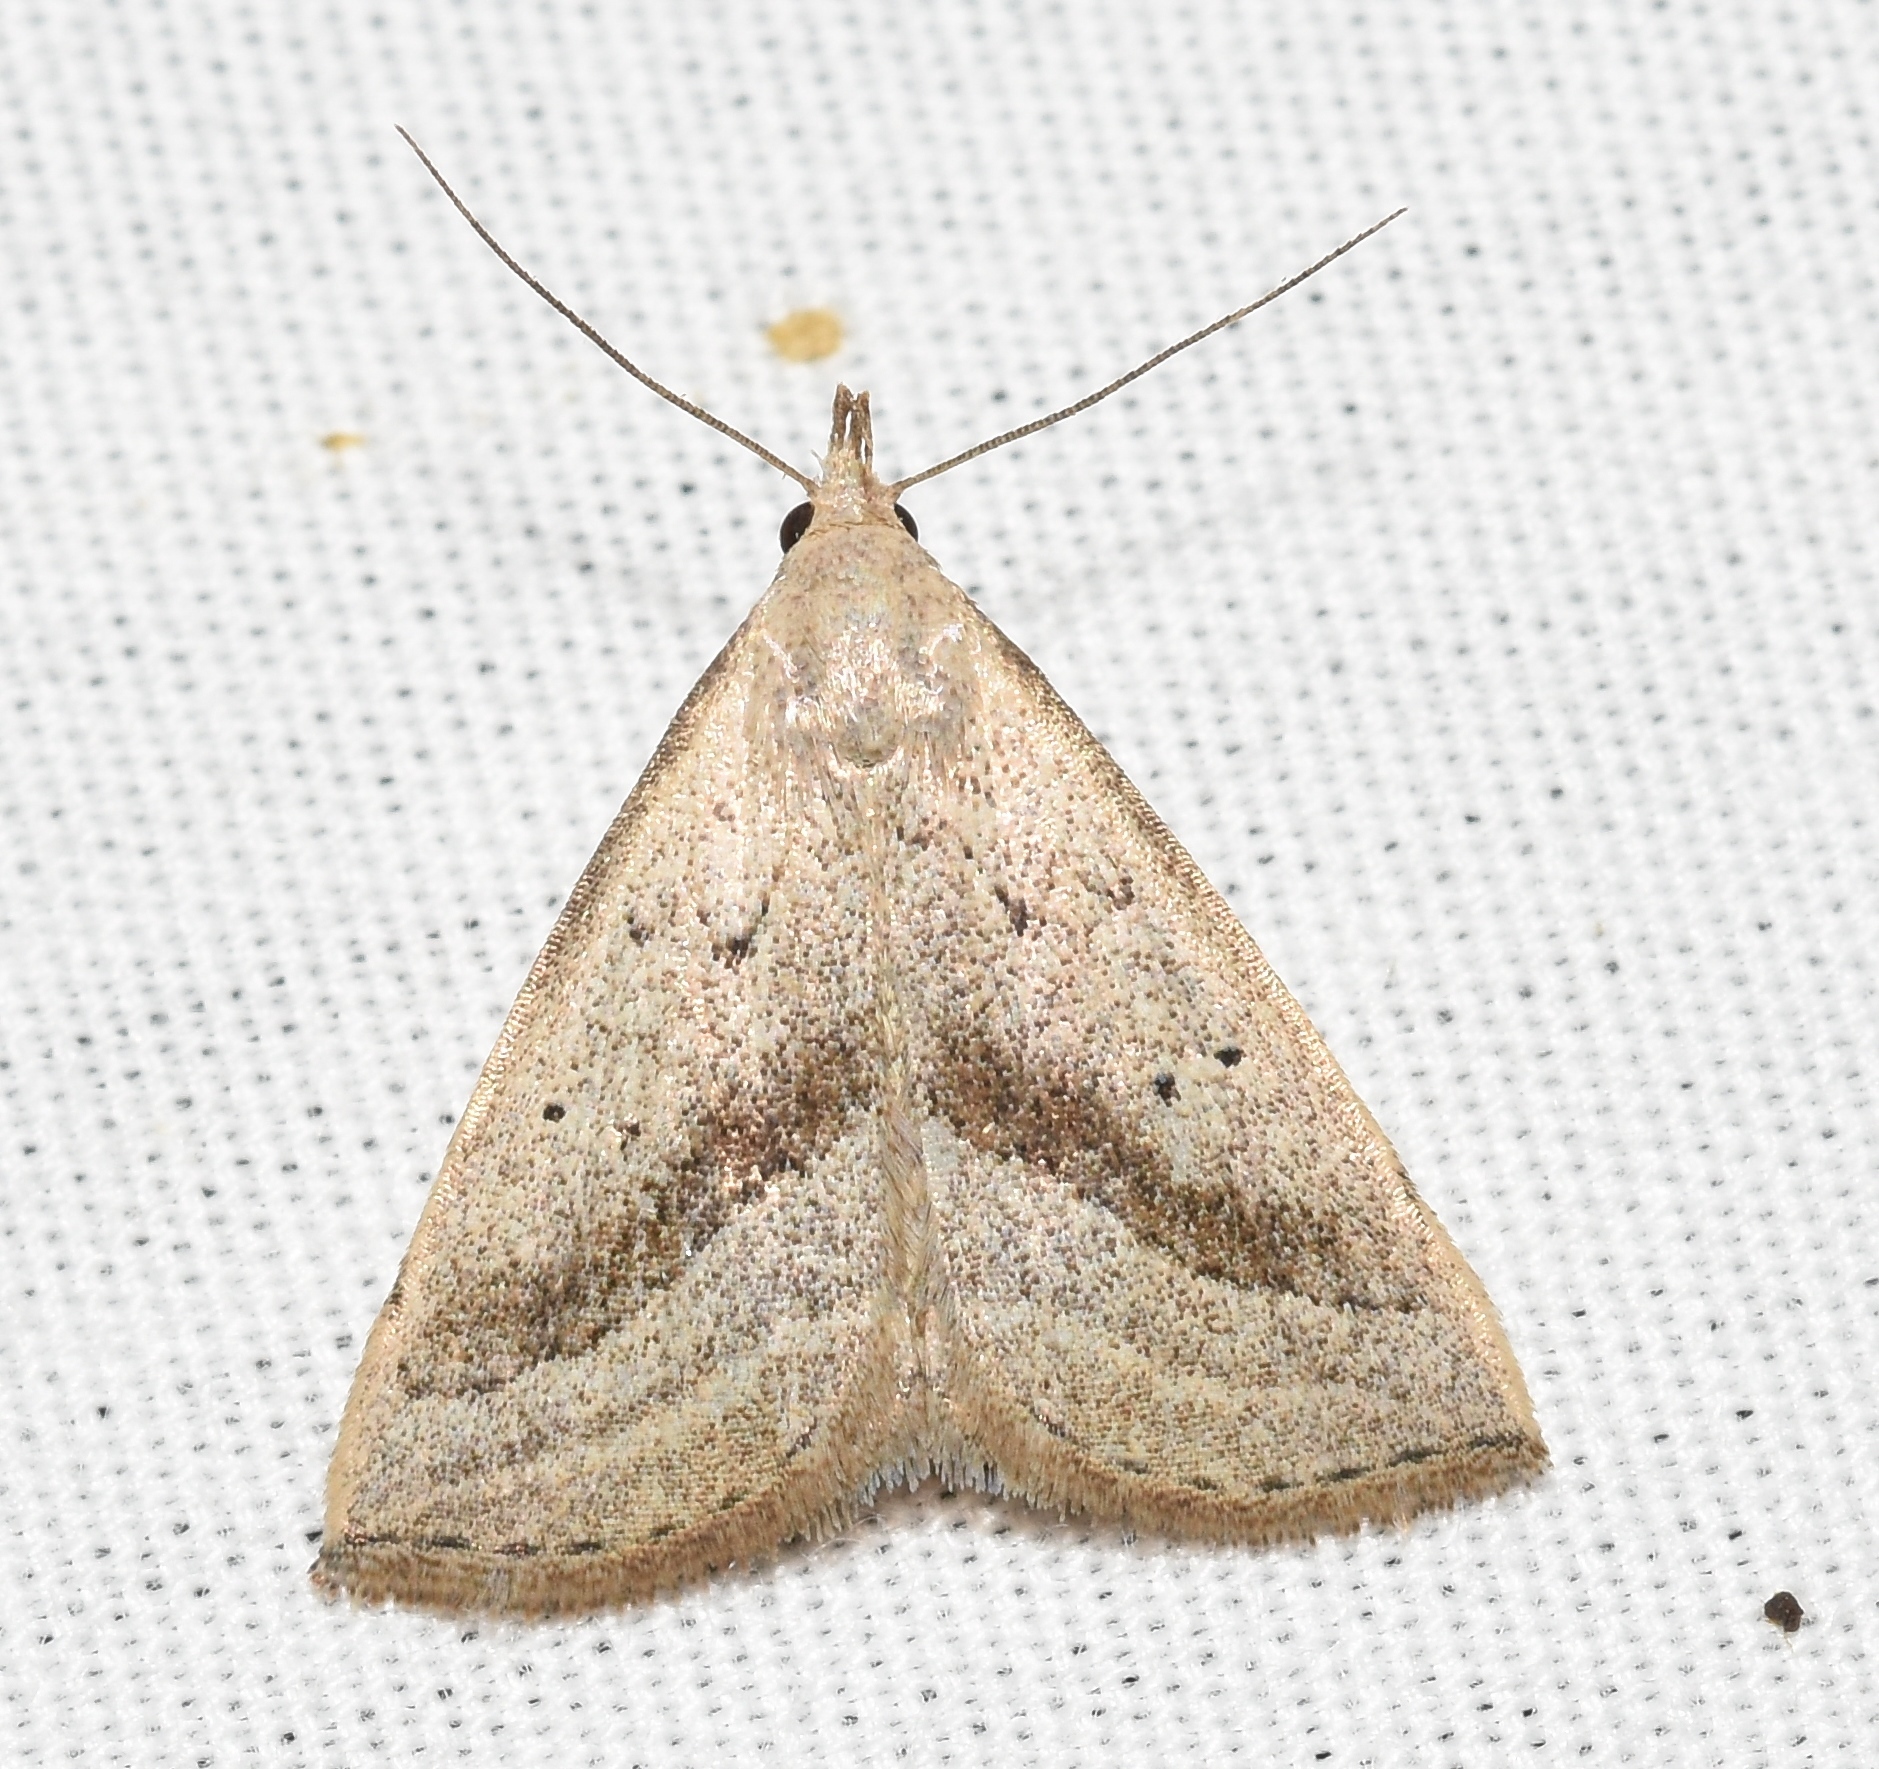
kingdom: Animalia
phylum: Arthropoda
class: Insecta
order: Lepidoptera
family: Erebidae
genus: Macrochilo
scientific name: Macrochilo hypocritalis
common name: Twin-dotted owlet
